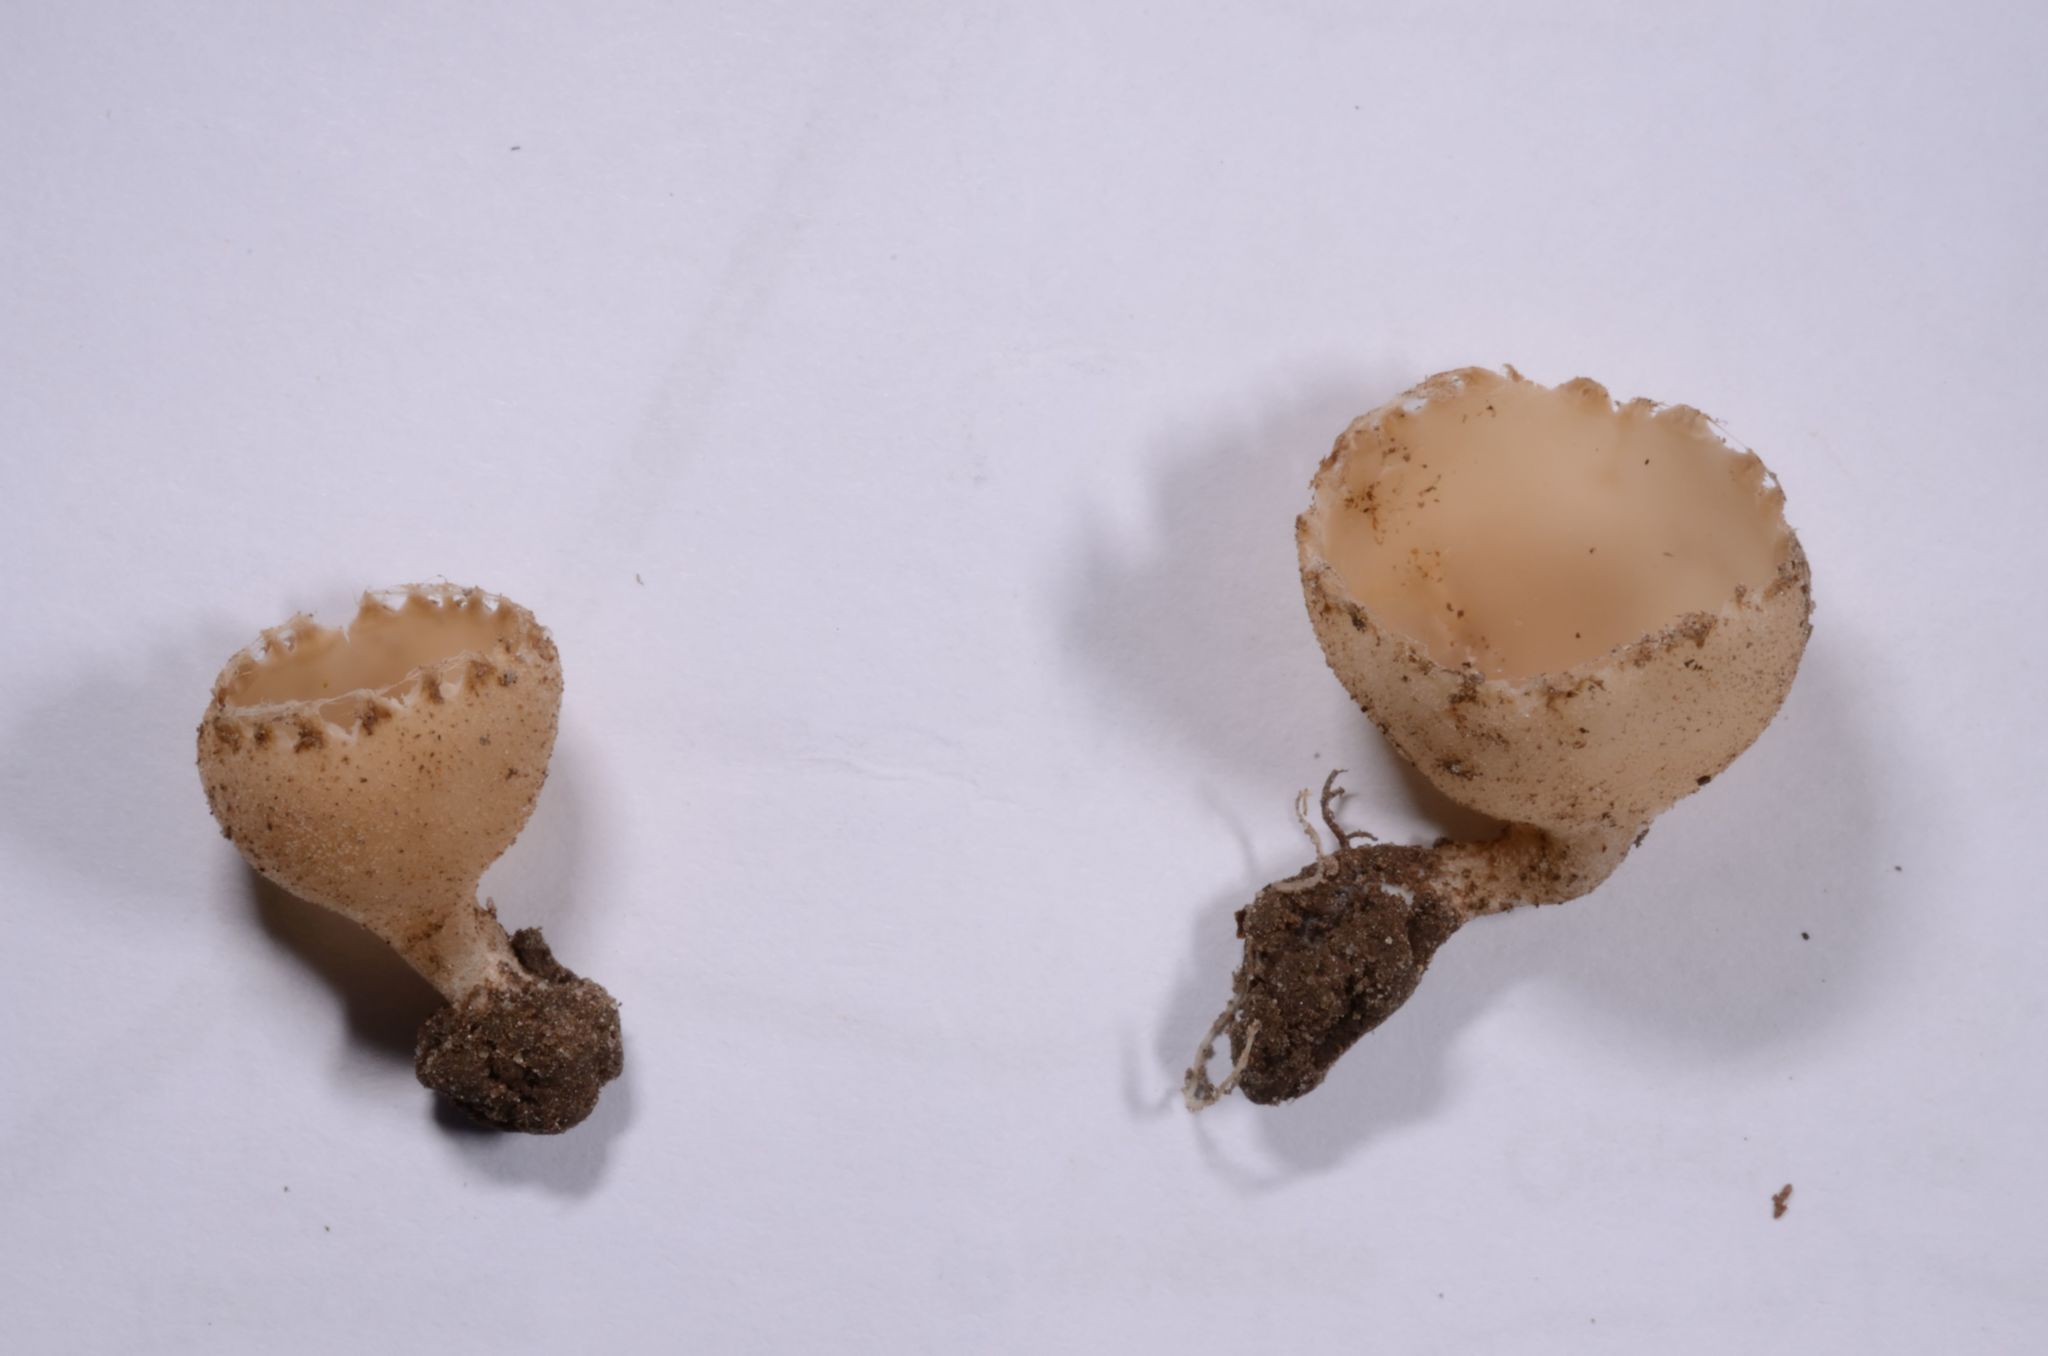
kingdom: Fungi
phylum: Ascomycota
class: Pezizomycetes
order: Pezizales
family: Tarzettaceae
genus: Tarzetta
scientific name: Tarzetta cupularis
